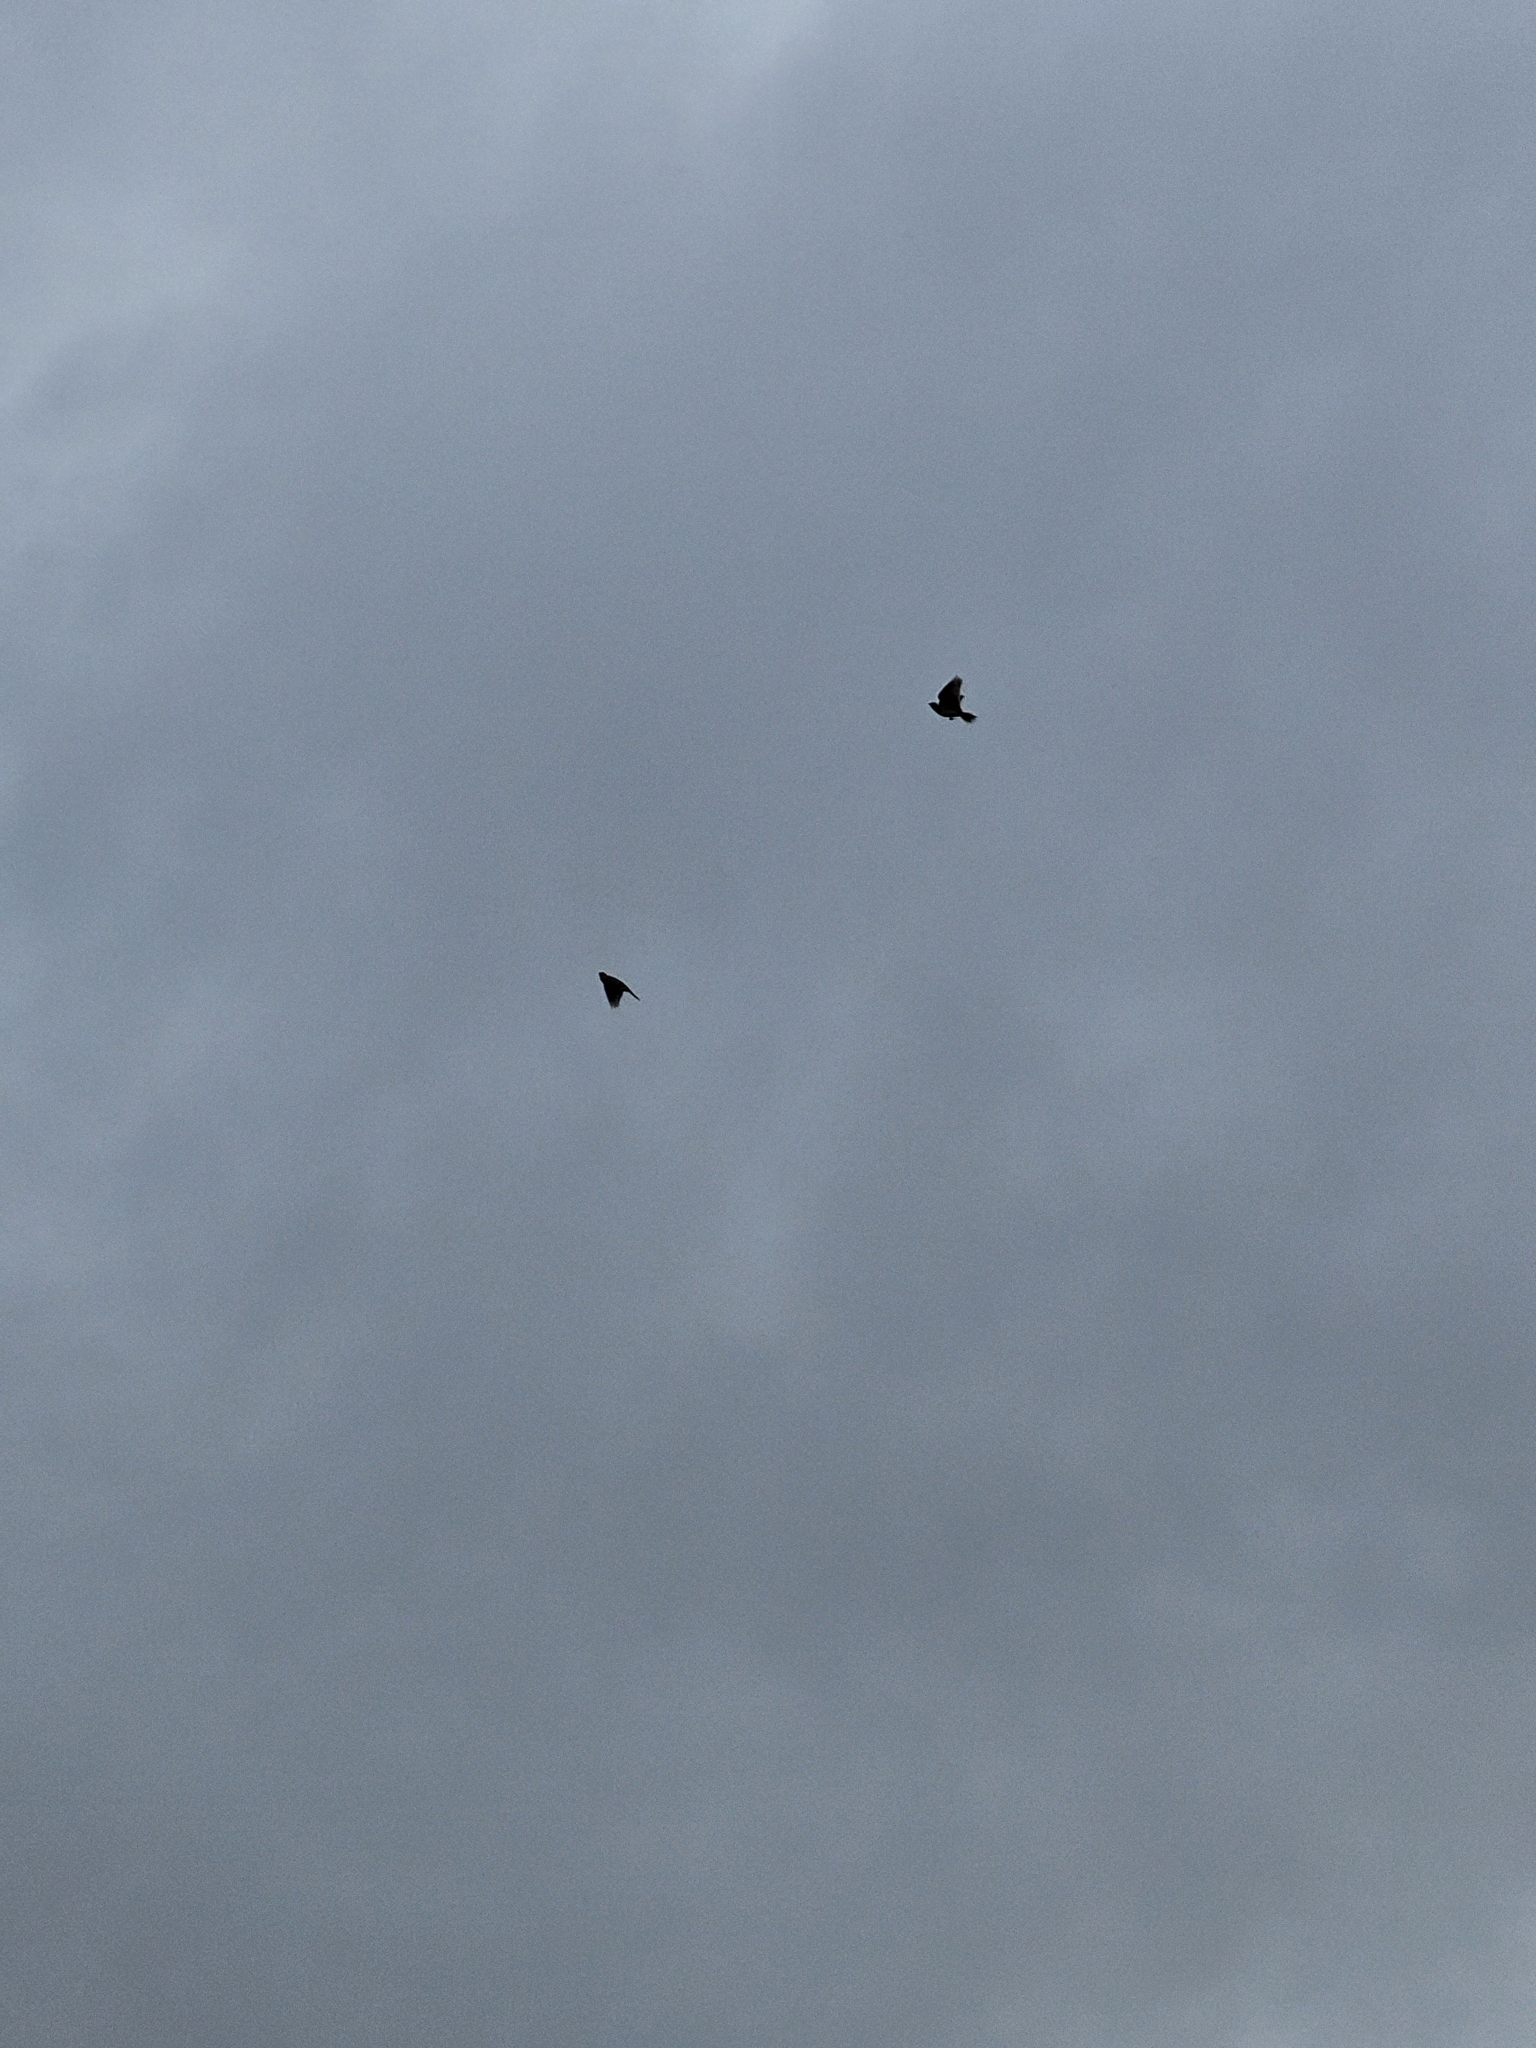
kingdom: Animalia
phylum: Chordata
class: Aves
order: Passeriformes
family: Alaudidae
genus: Alauda
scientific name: Alauda arvensis
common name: Eurasian skylark
